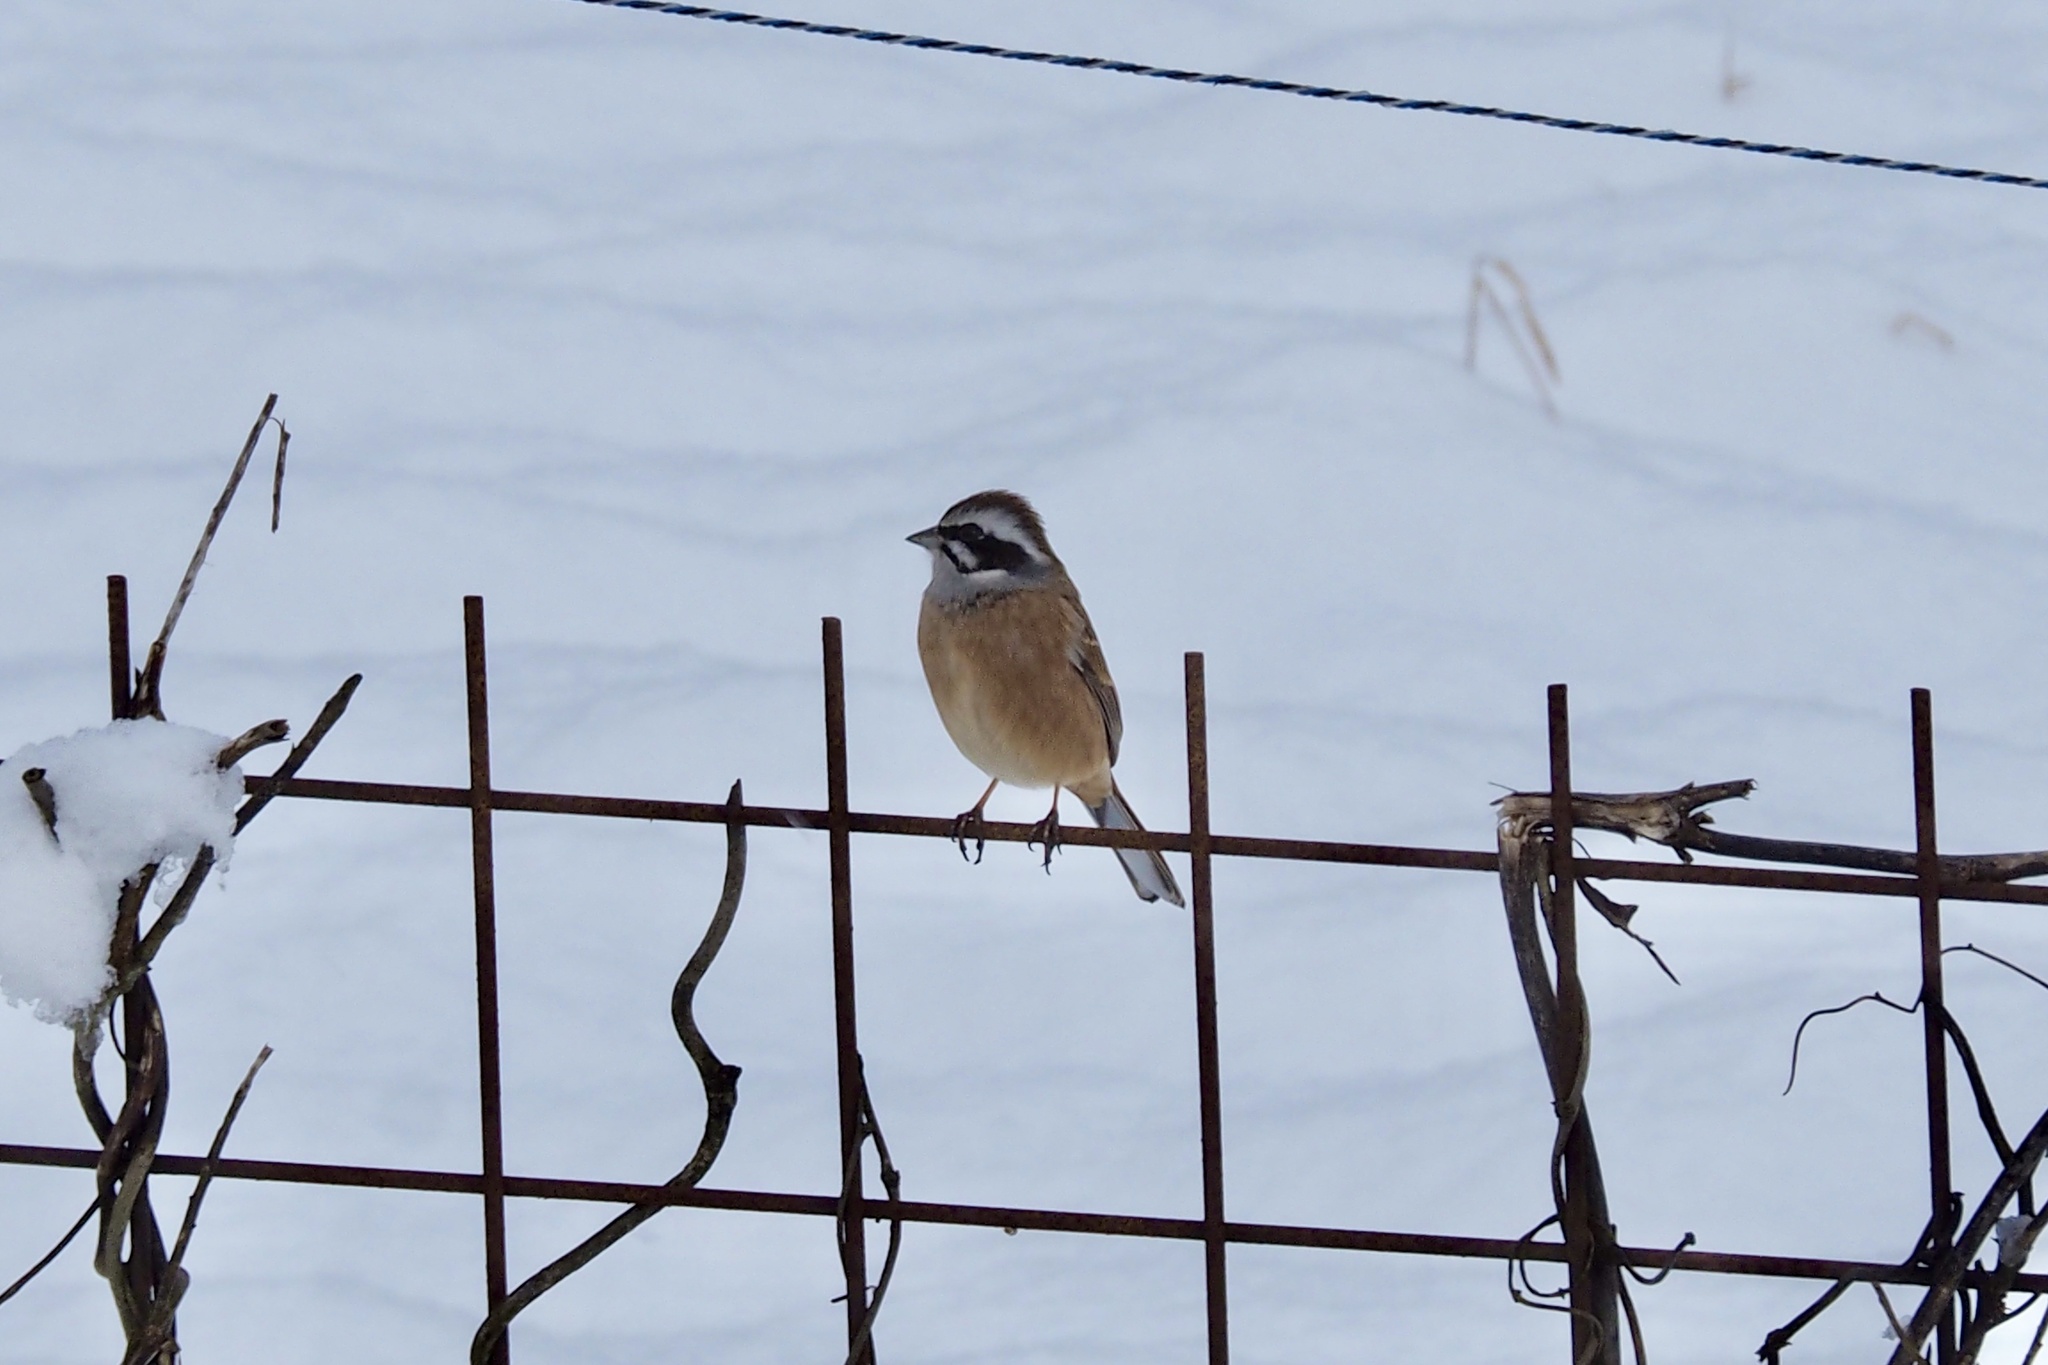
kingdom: Animalia
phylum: Chordata
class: Aves
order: Passeriformes
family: Emberizidae
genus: Emberiza
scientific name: Emberiza cioides
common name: Meadow bunting
